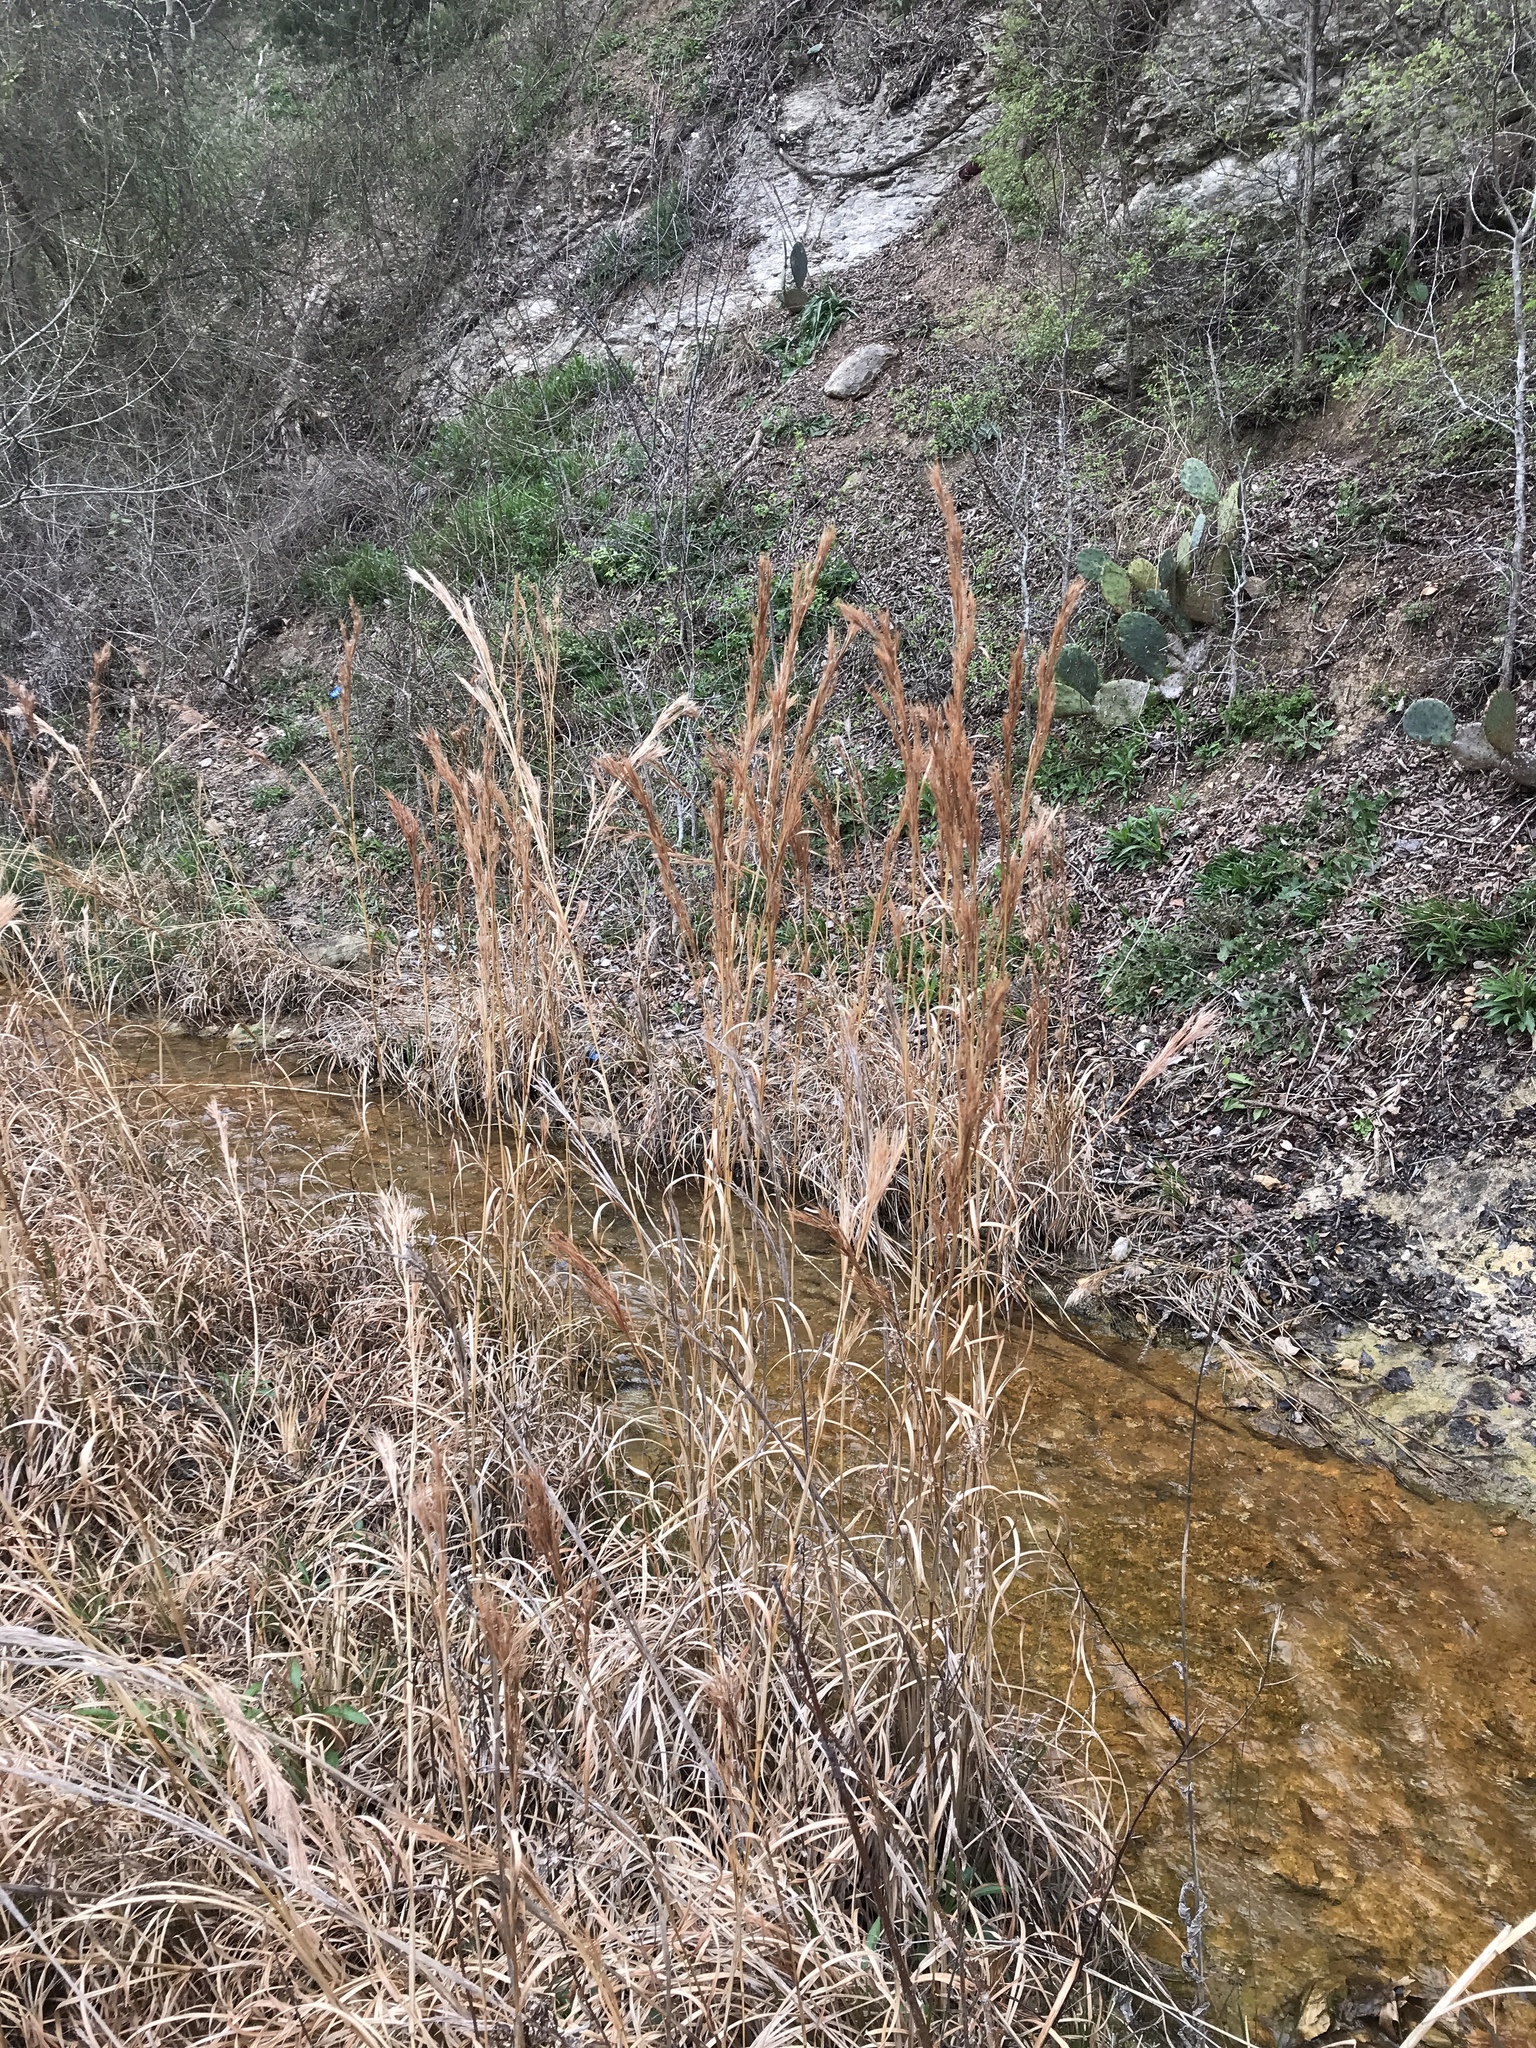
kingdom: Plantae
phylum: Tracheophyta
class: Liliopsida
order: Poales
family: Poaceae
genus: Andropogon
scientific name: Andropogon tenuispatheus
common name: Bushy bluestem
